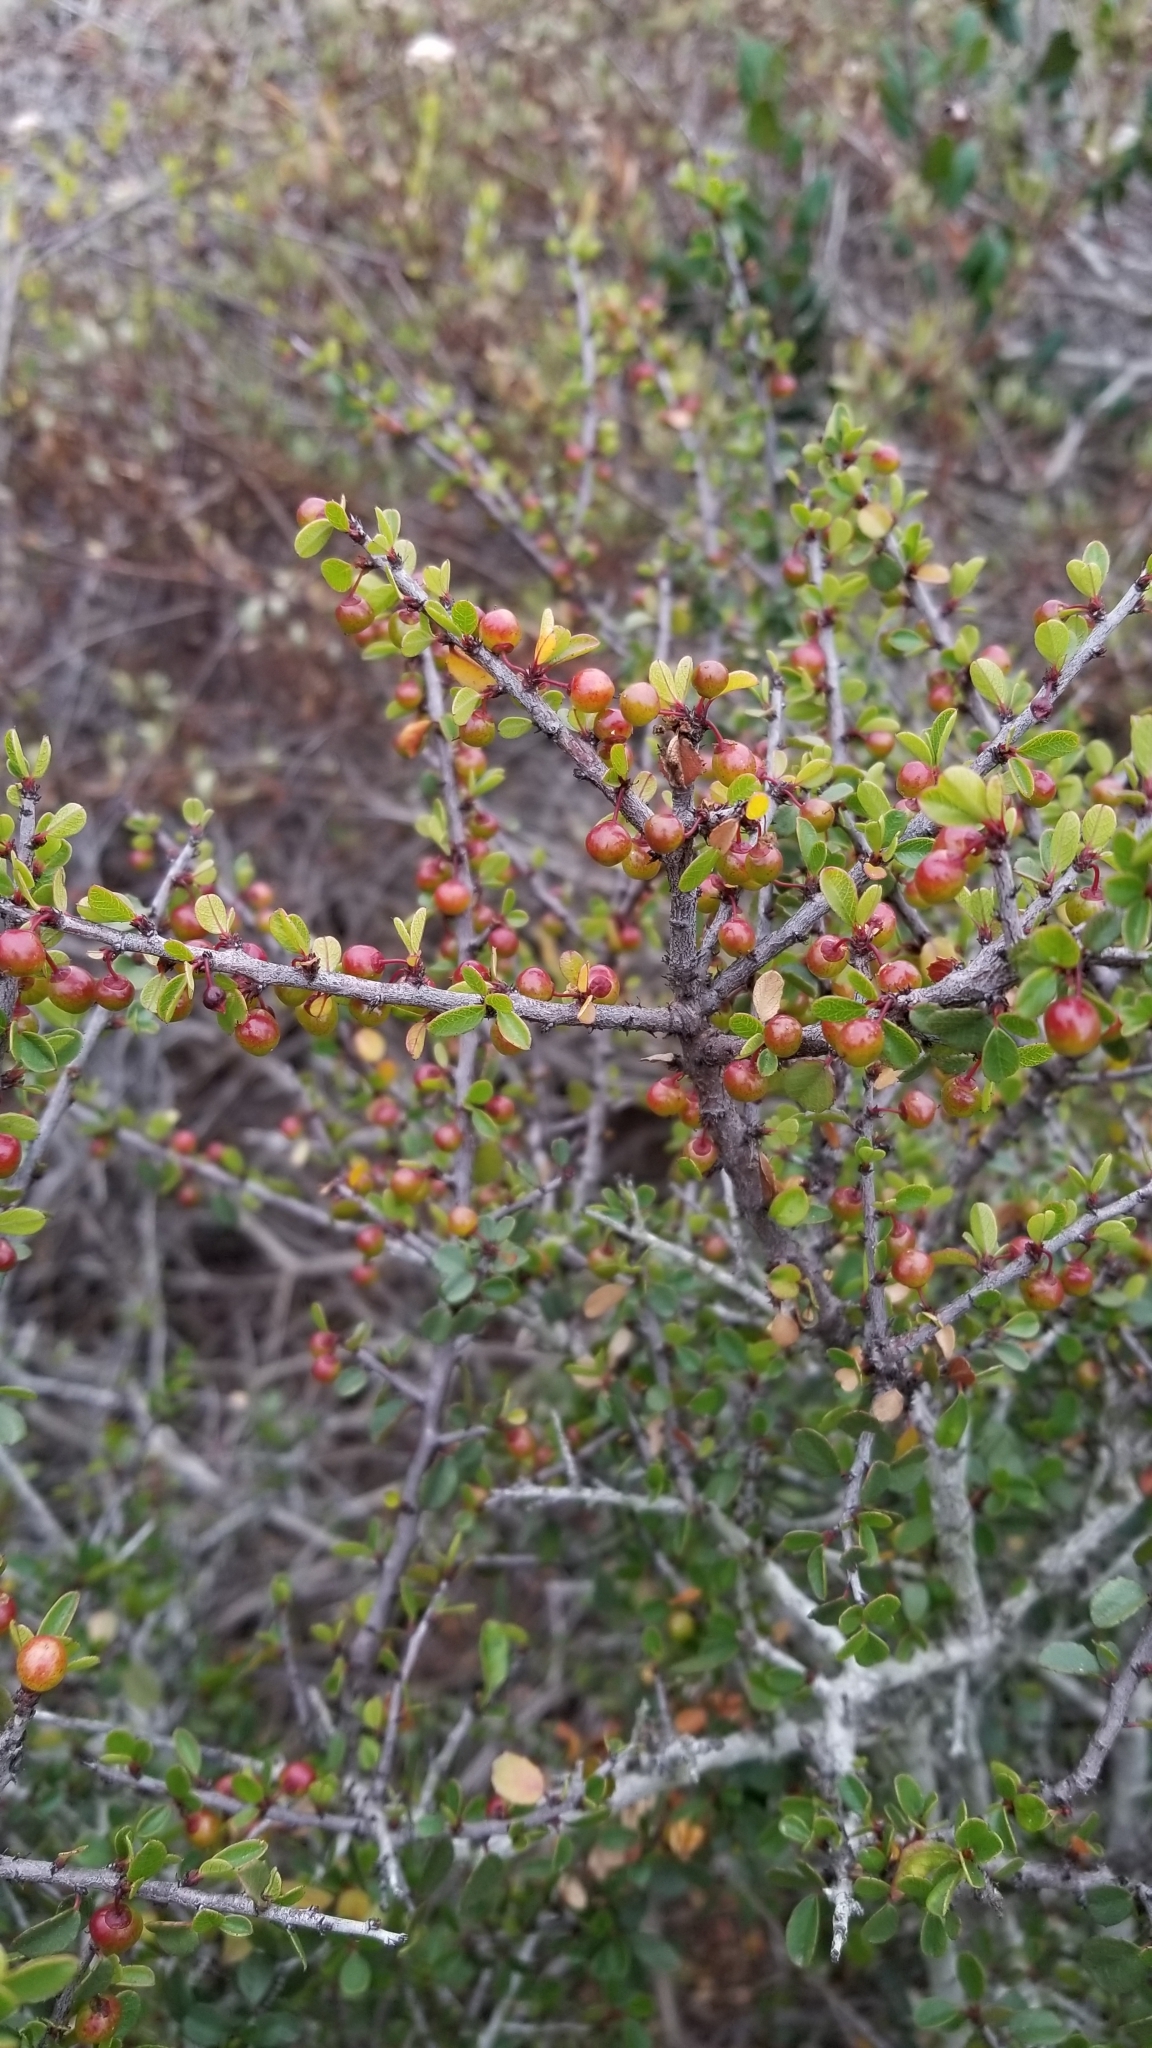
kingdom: Plantae
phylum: Tracheophyta
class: Magnoliopsida
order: Rosales
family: Rhamnaceae
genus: Endotropis
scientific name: Endotropis crocea
